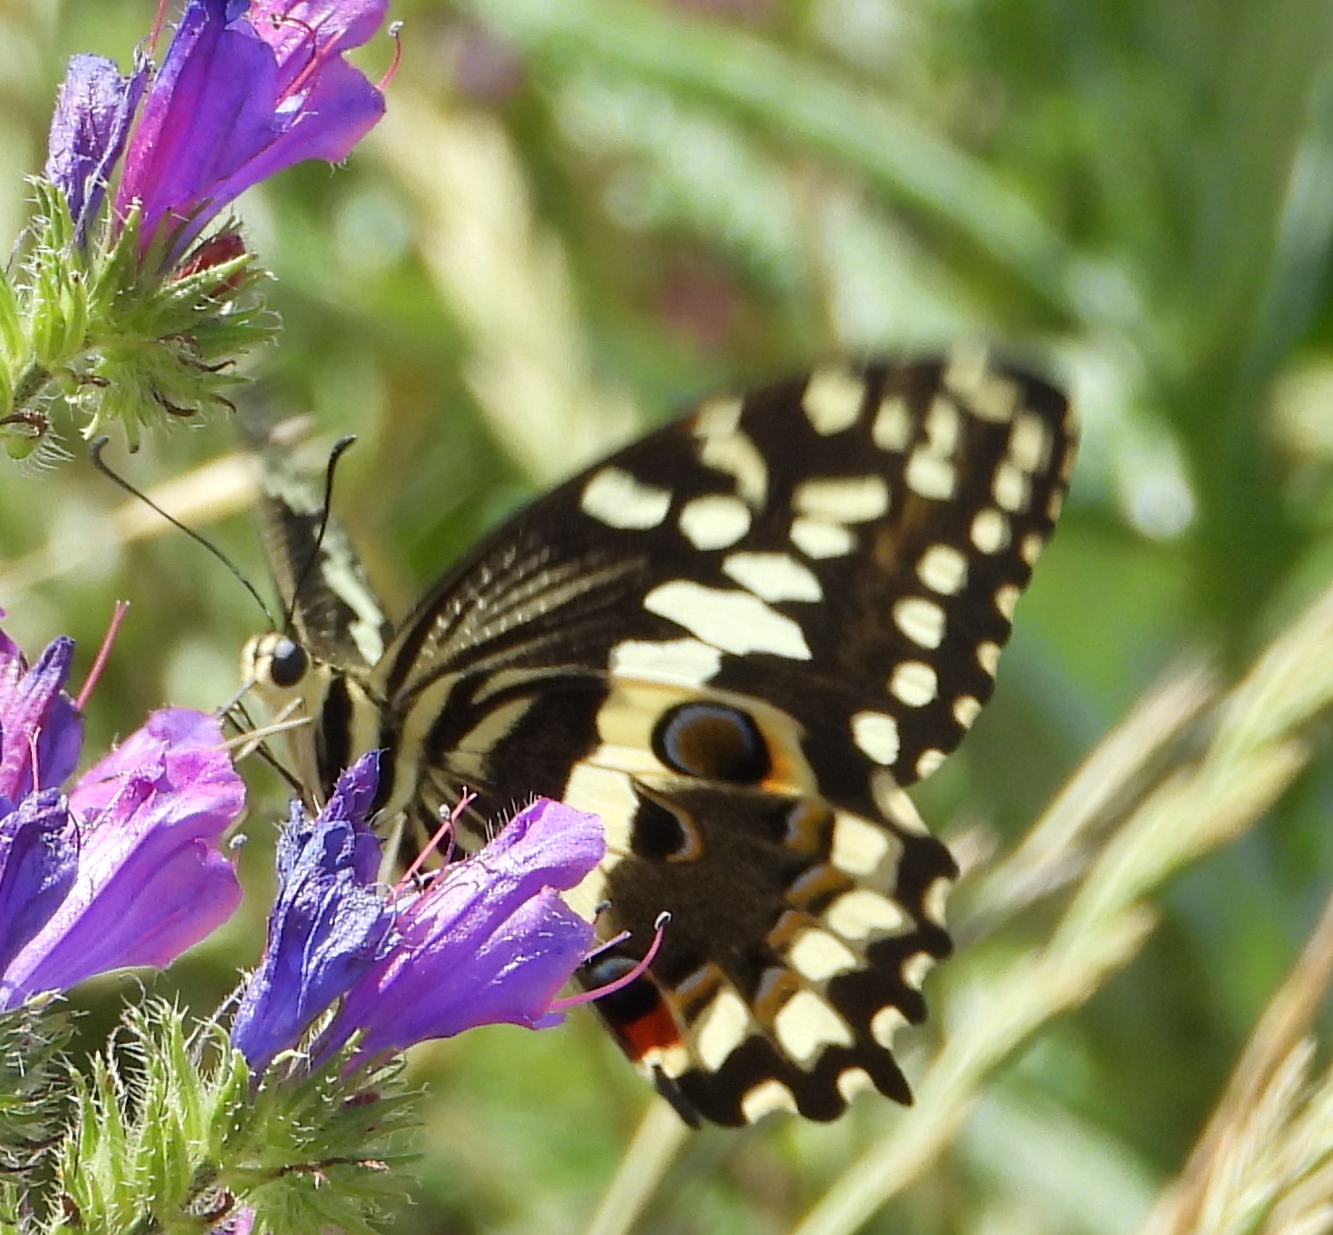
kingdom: Animalia
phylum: Arthropoda
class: Insecta
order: Lepidoptera
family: Papilionidae
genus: Papilio
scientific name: Papilio demodocus
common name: Christmas butterfly
